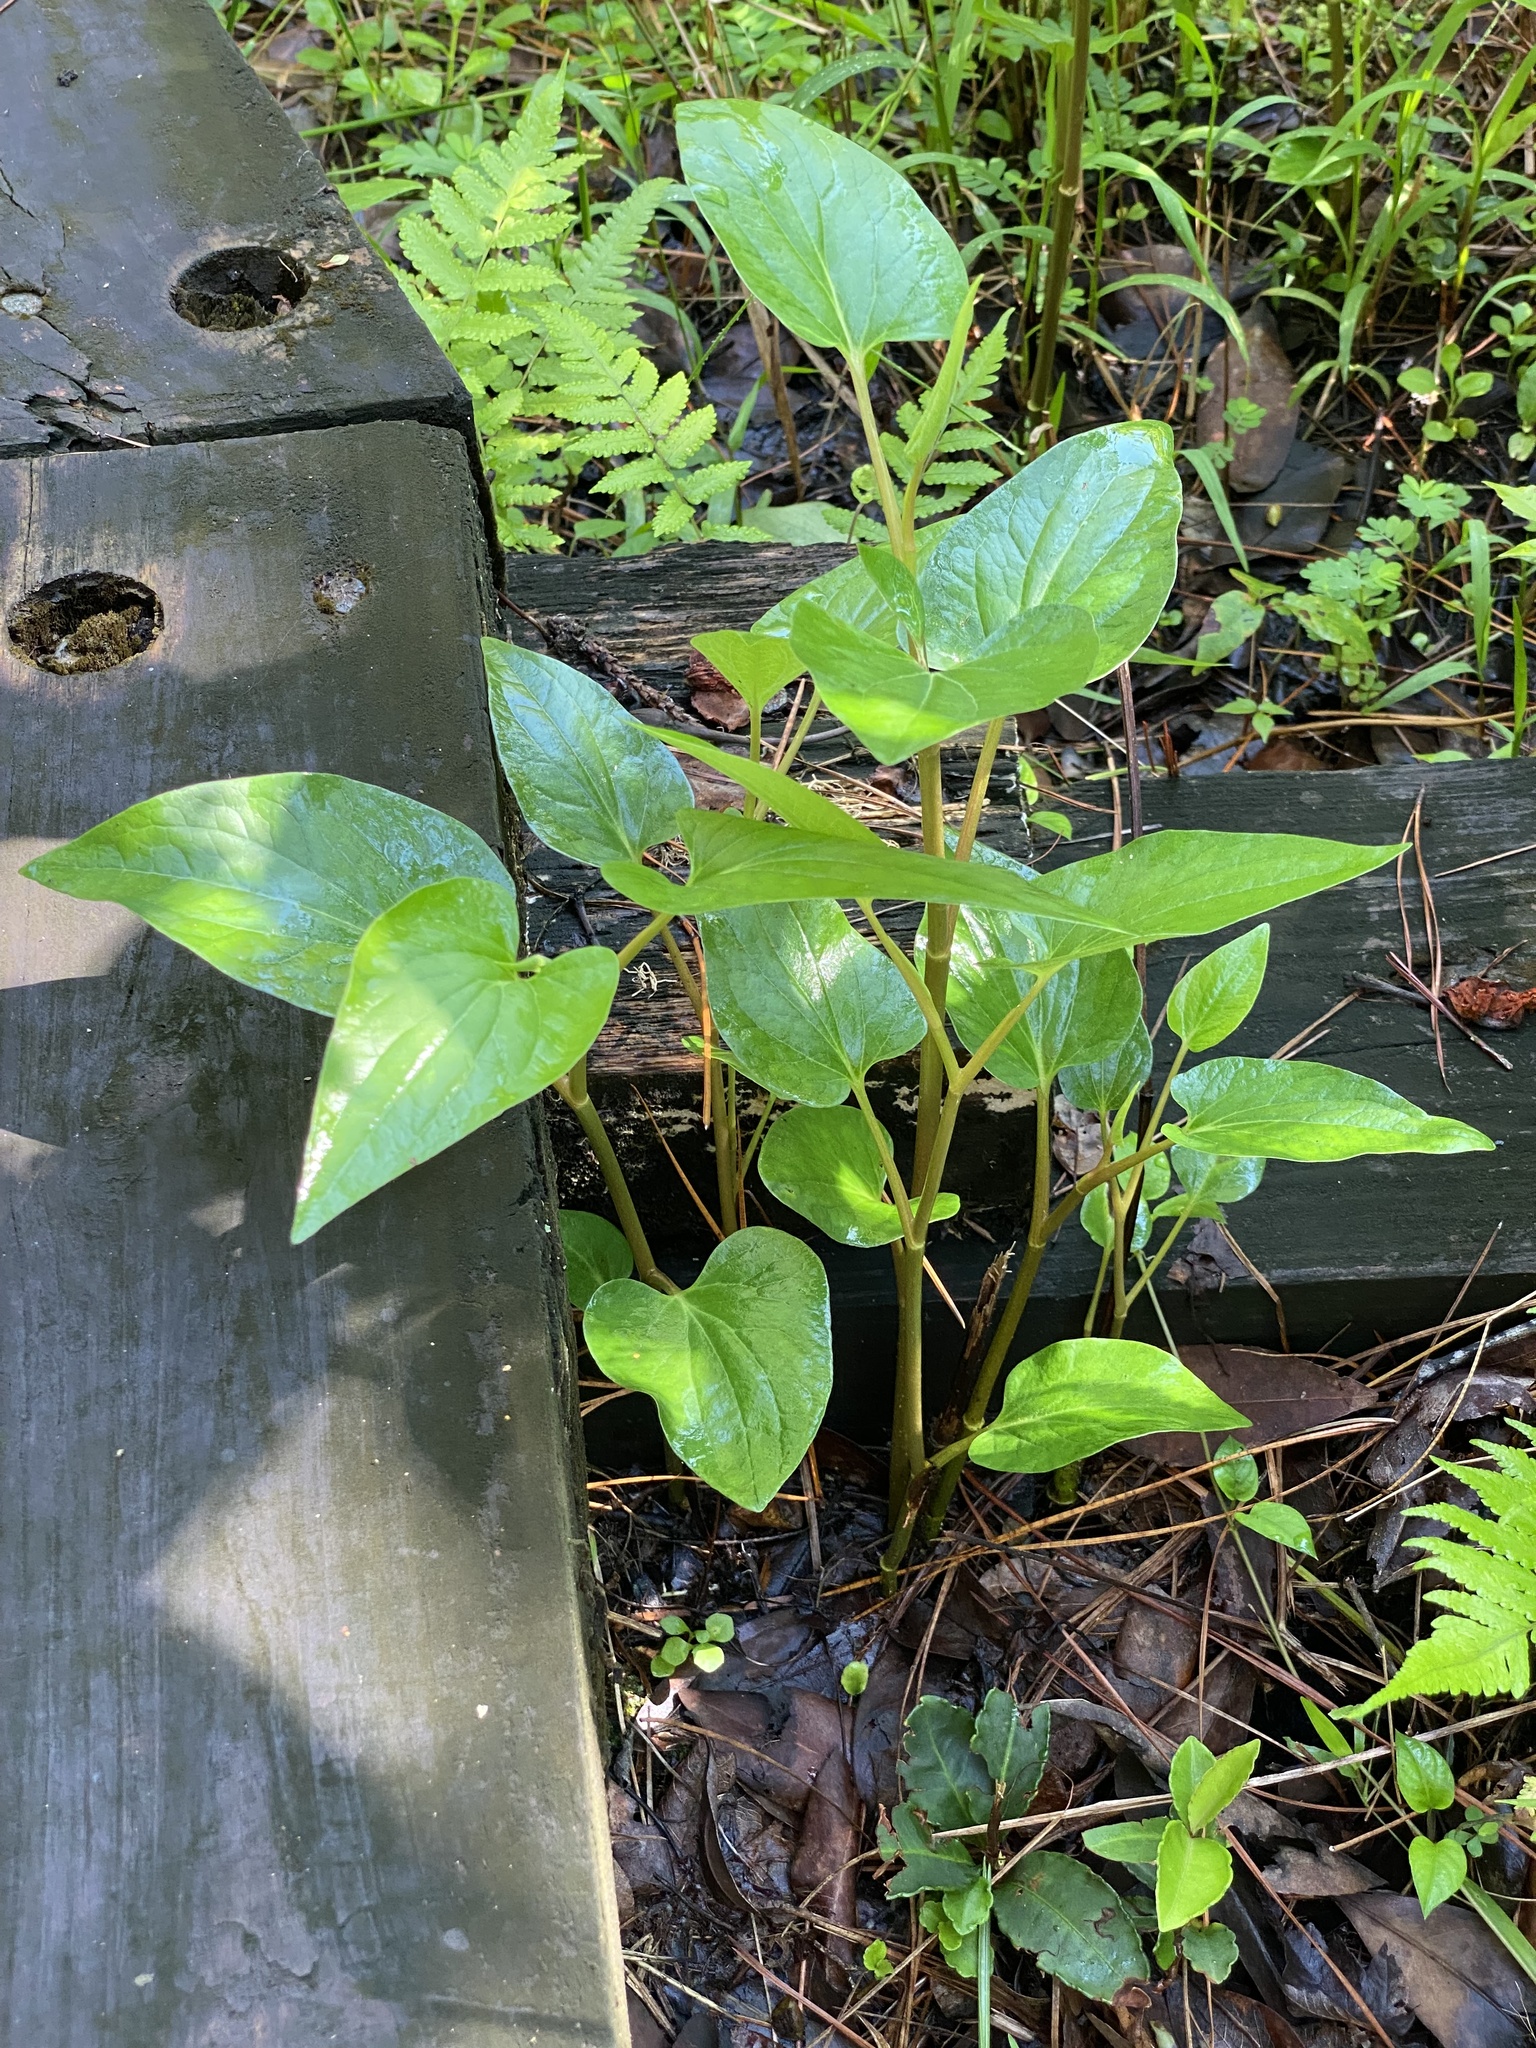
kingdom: Plantae
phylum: Tracheophyta
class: Magnoliopsida
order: Piperales
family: Saururaceae
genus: Saururus
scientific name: Saururus cernuus
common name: Lizard's-tail
